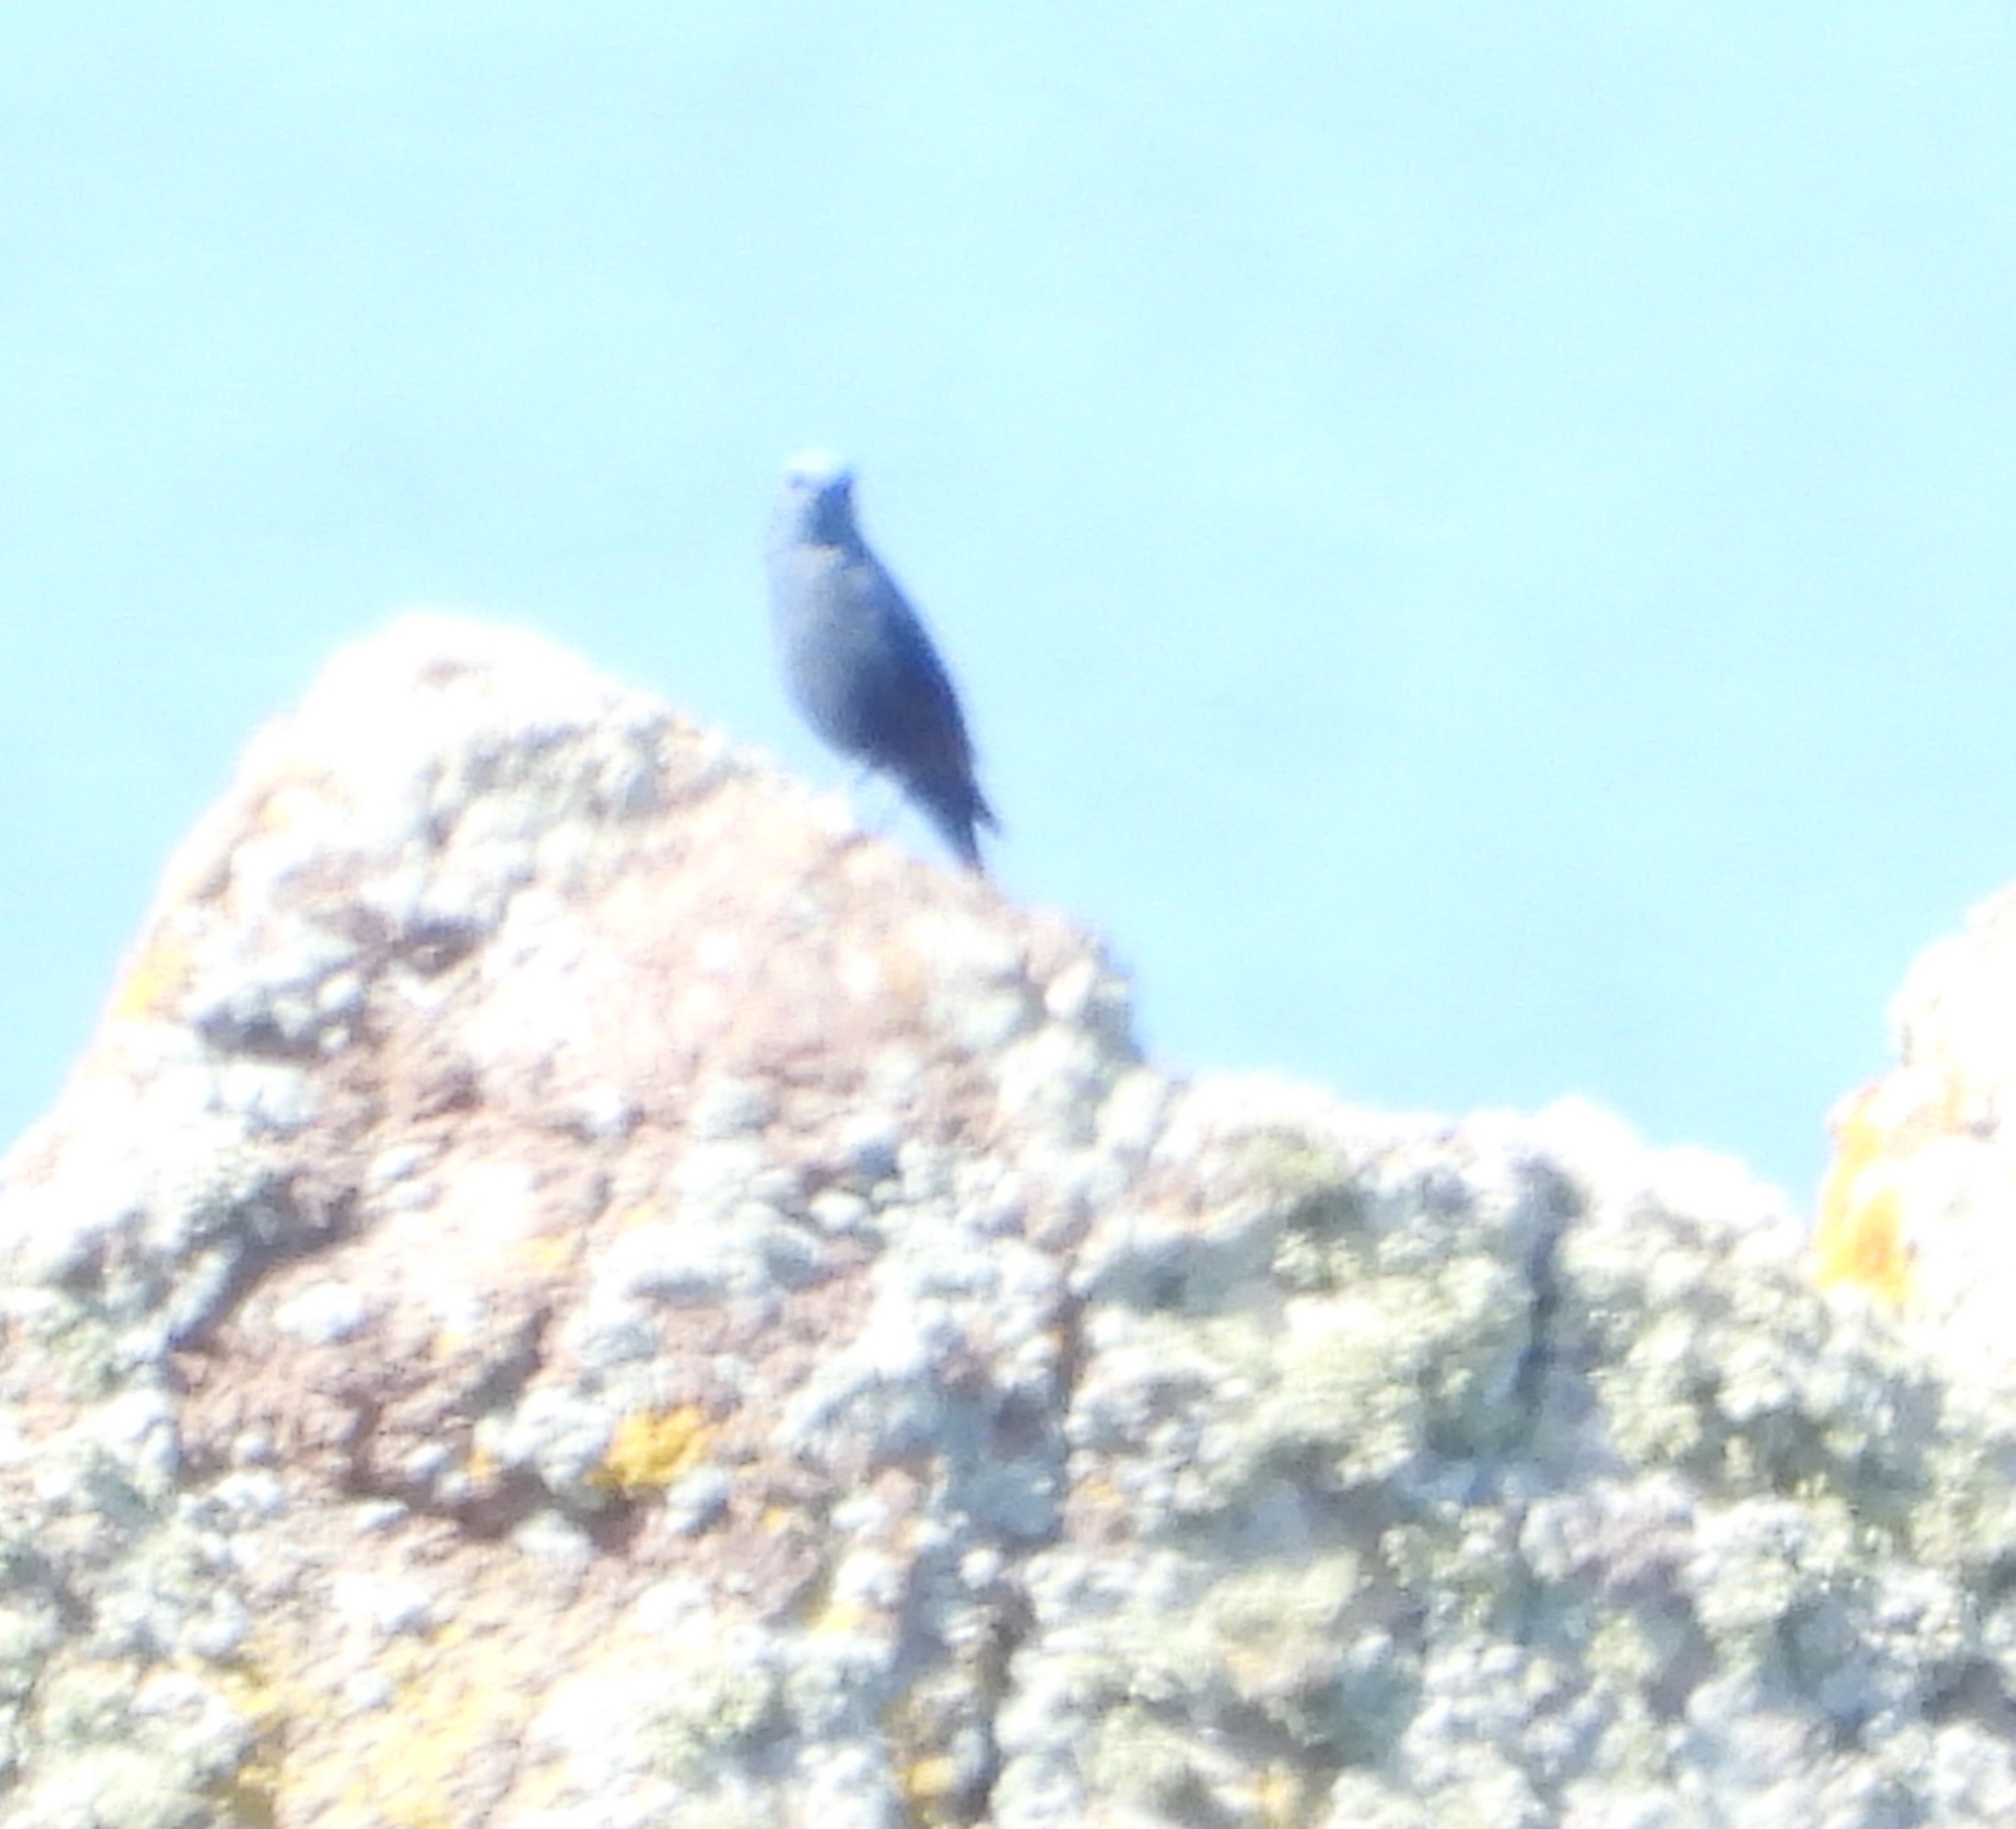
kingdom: Animalia
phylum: Chordata
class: Aves
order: Passeriformes
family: Muscicapidae
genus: Monticola
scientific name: Monticola solitarius
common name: Blue rock thrush
